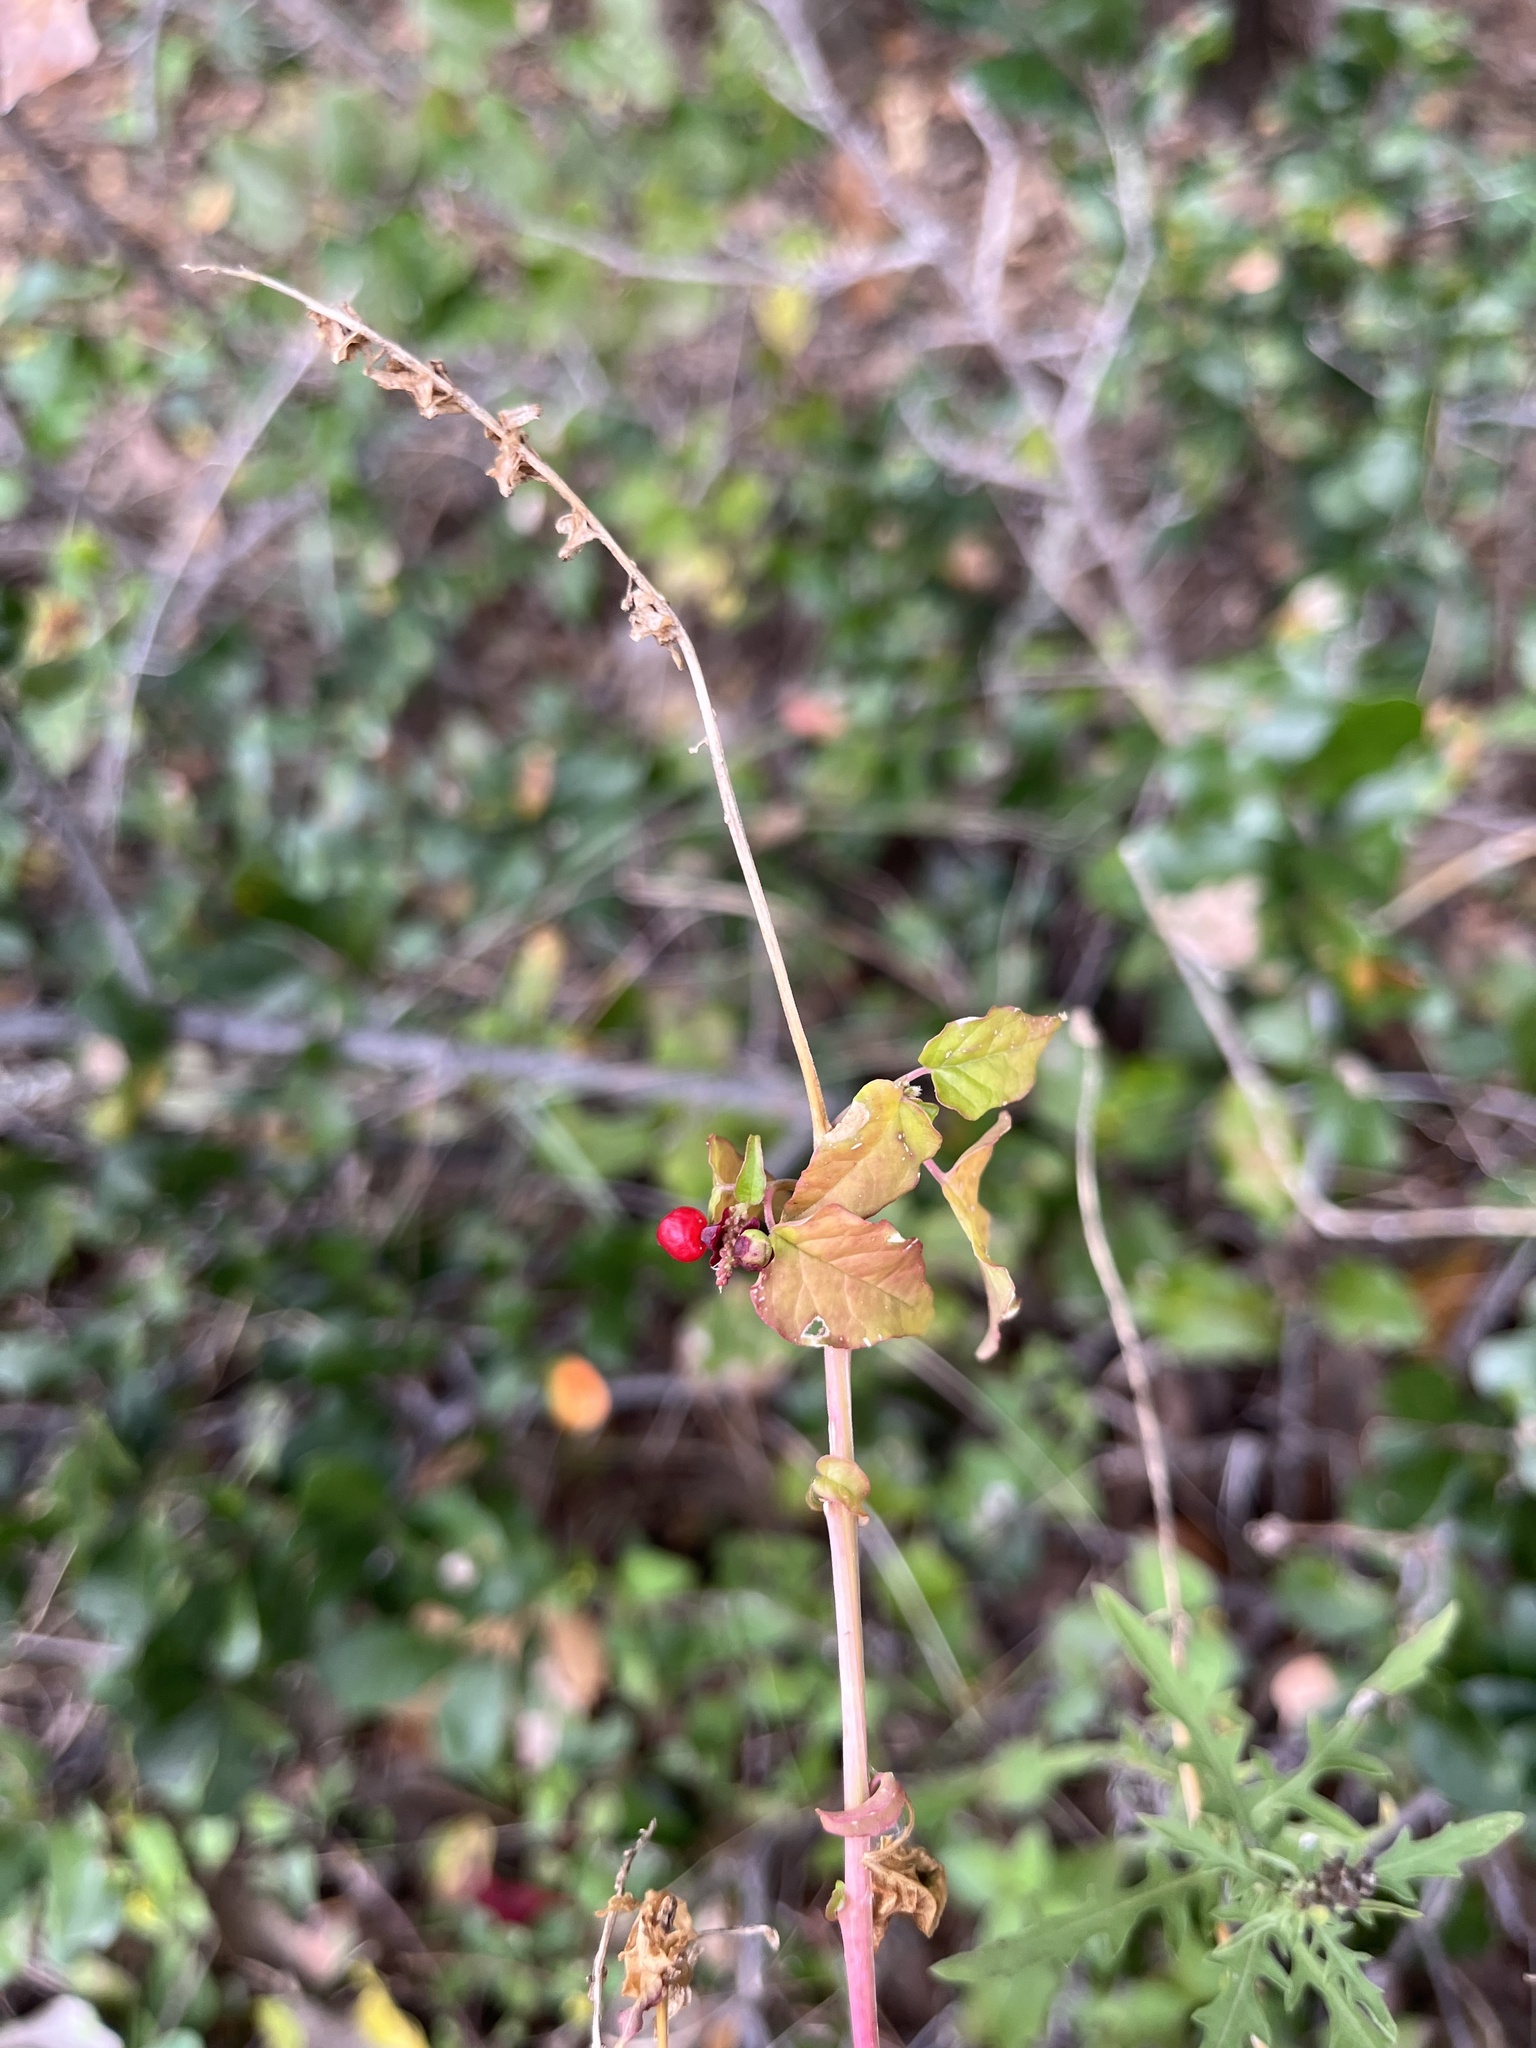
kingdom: Plantae
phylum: Tracheophyta
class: Magnoliopsida
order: Caryophyllales
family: Phytolaccaceae
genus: Rivina
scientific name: Rivina humilis
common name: Rougeplant
